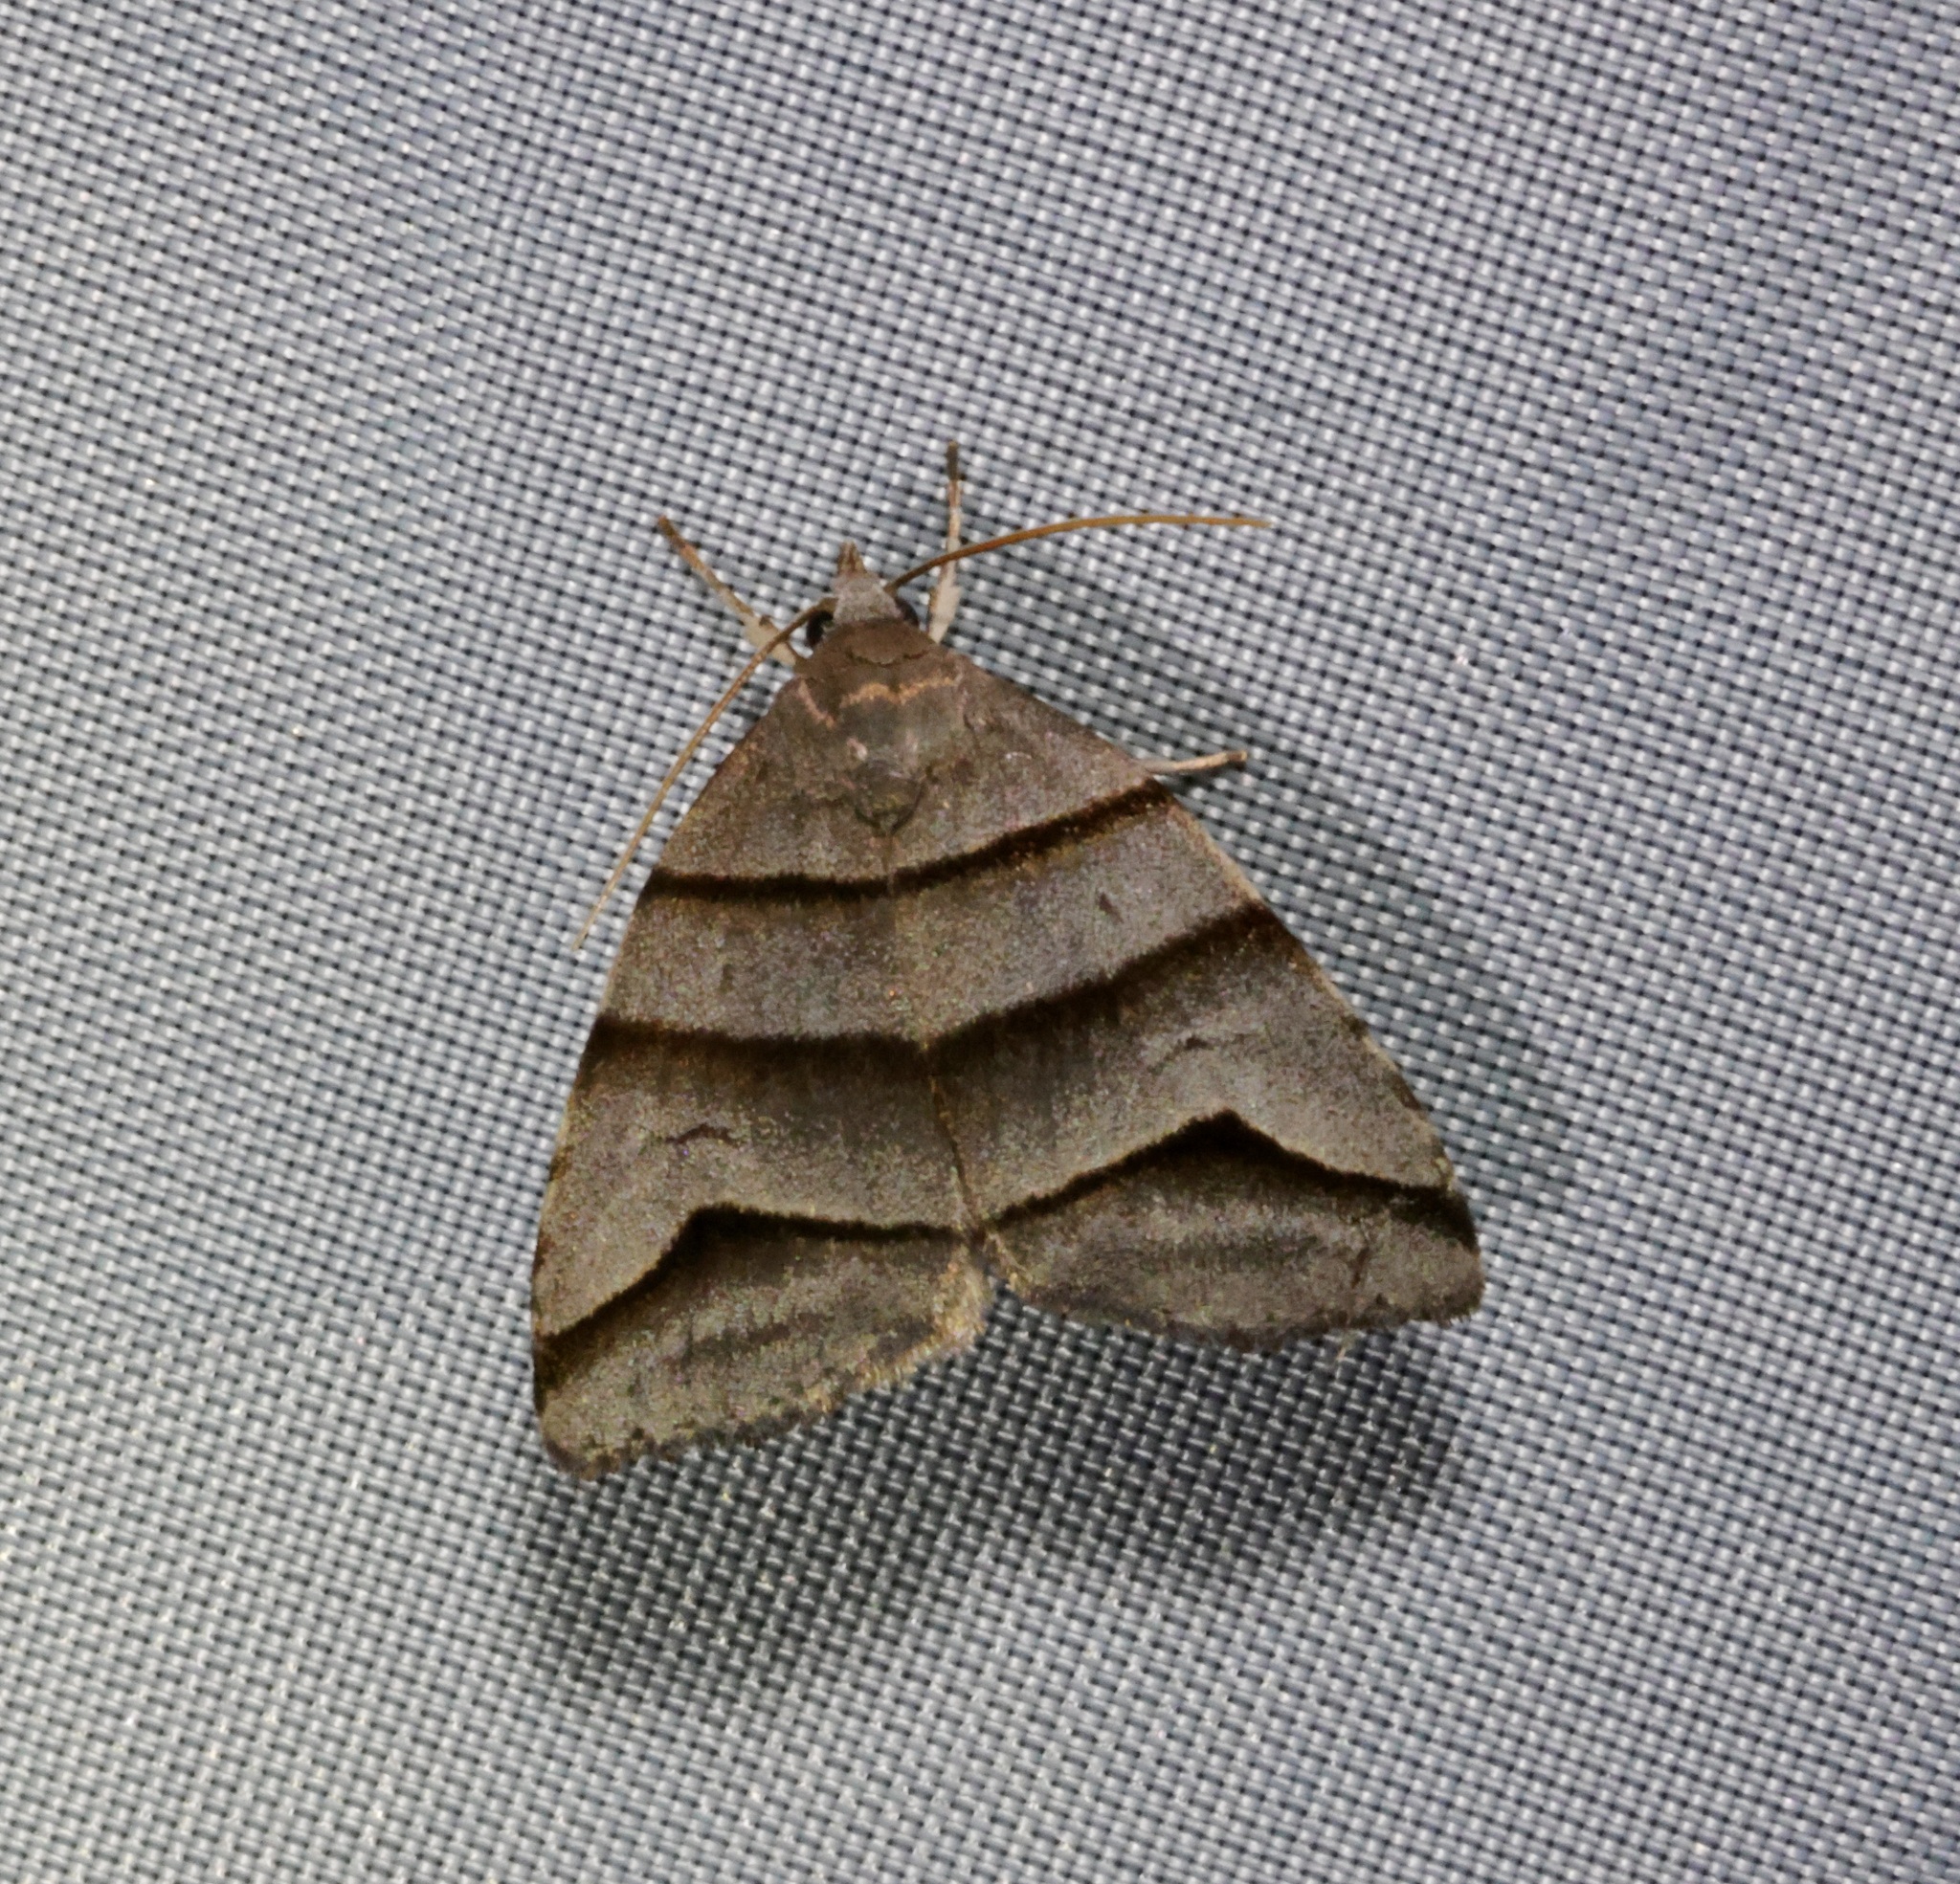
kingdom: Animalia
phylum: Arthropoda
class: Insecta
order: Lepidoptera
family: Noctuidae
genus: Flammona
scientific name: Flammona trilineata
